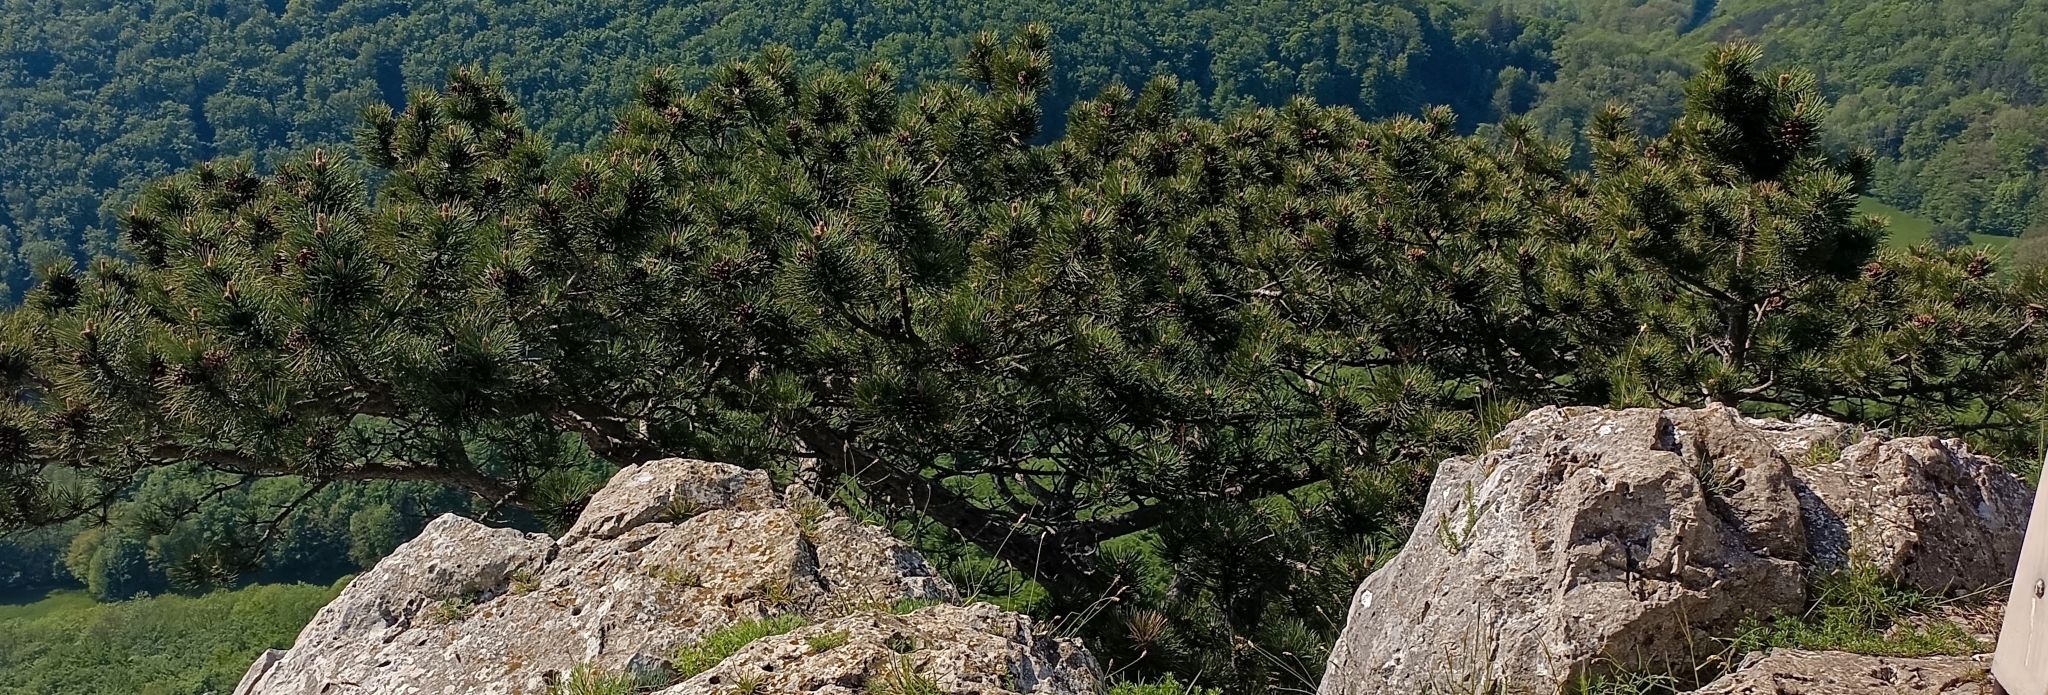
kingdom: Plantae
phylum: Tracheophyta
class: Pinopsida
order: Pinales
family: Pinaceae
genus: Pinus
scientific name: Pinus nigra
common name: Austrian pine
